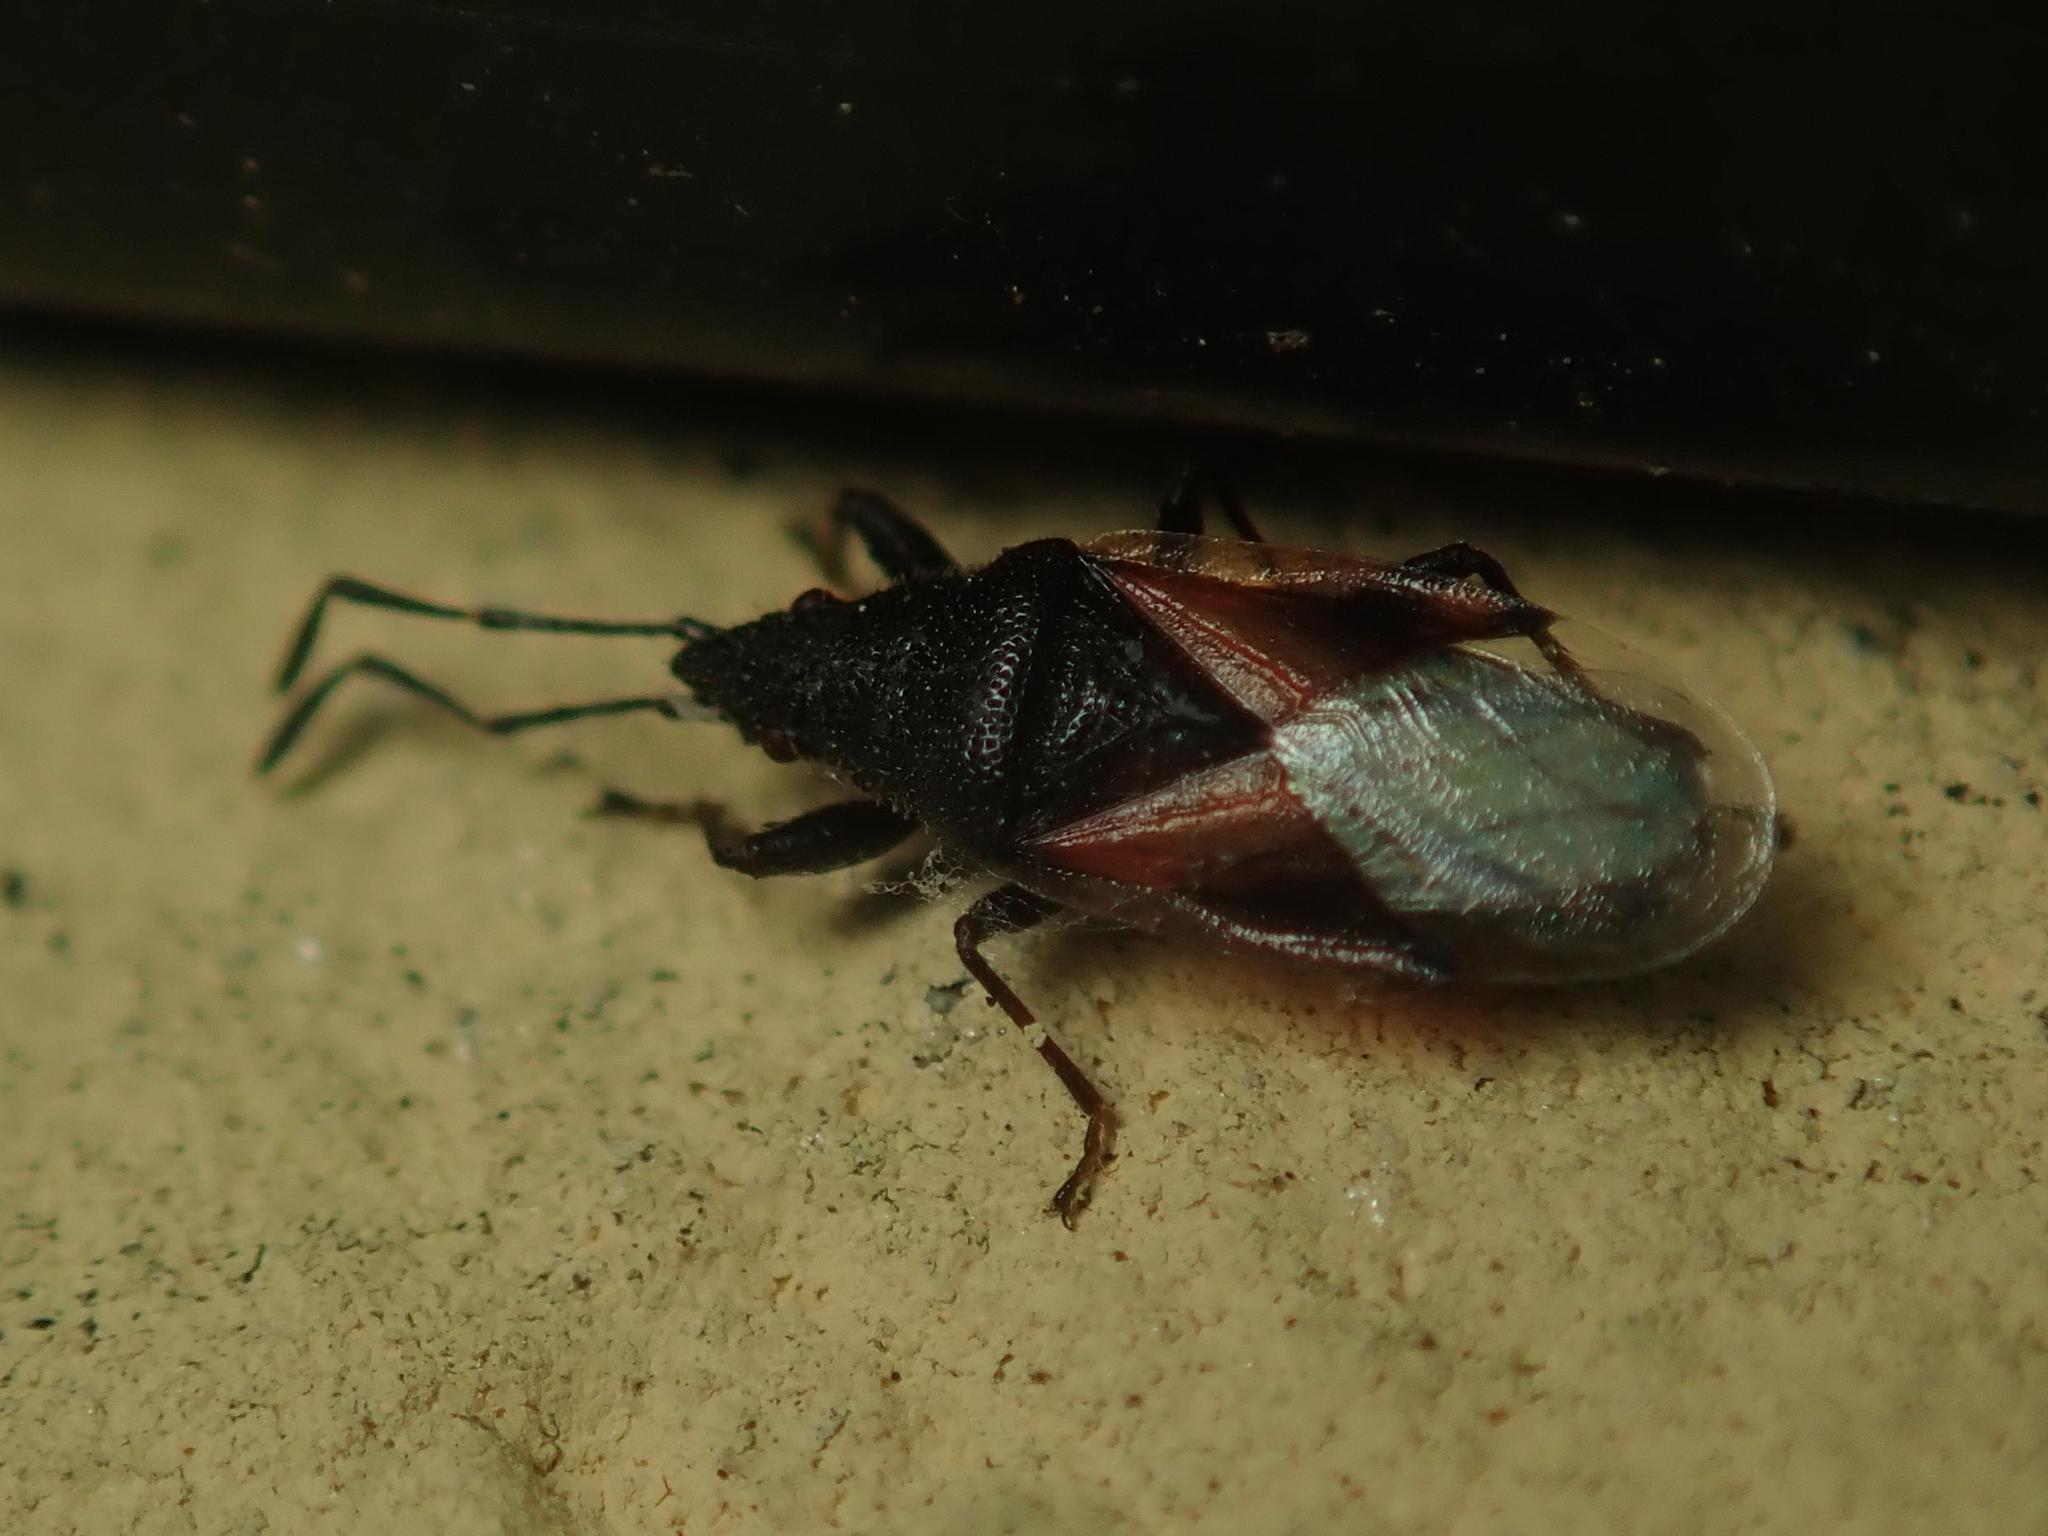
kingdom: Animalia
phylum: Arthropoda
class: Insecta
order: Hemiptera
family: Oxycarenidae
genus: Oxycarenus
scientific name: Oxycarenus lavaterae
